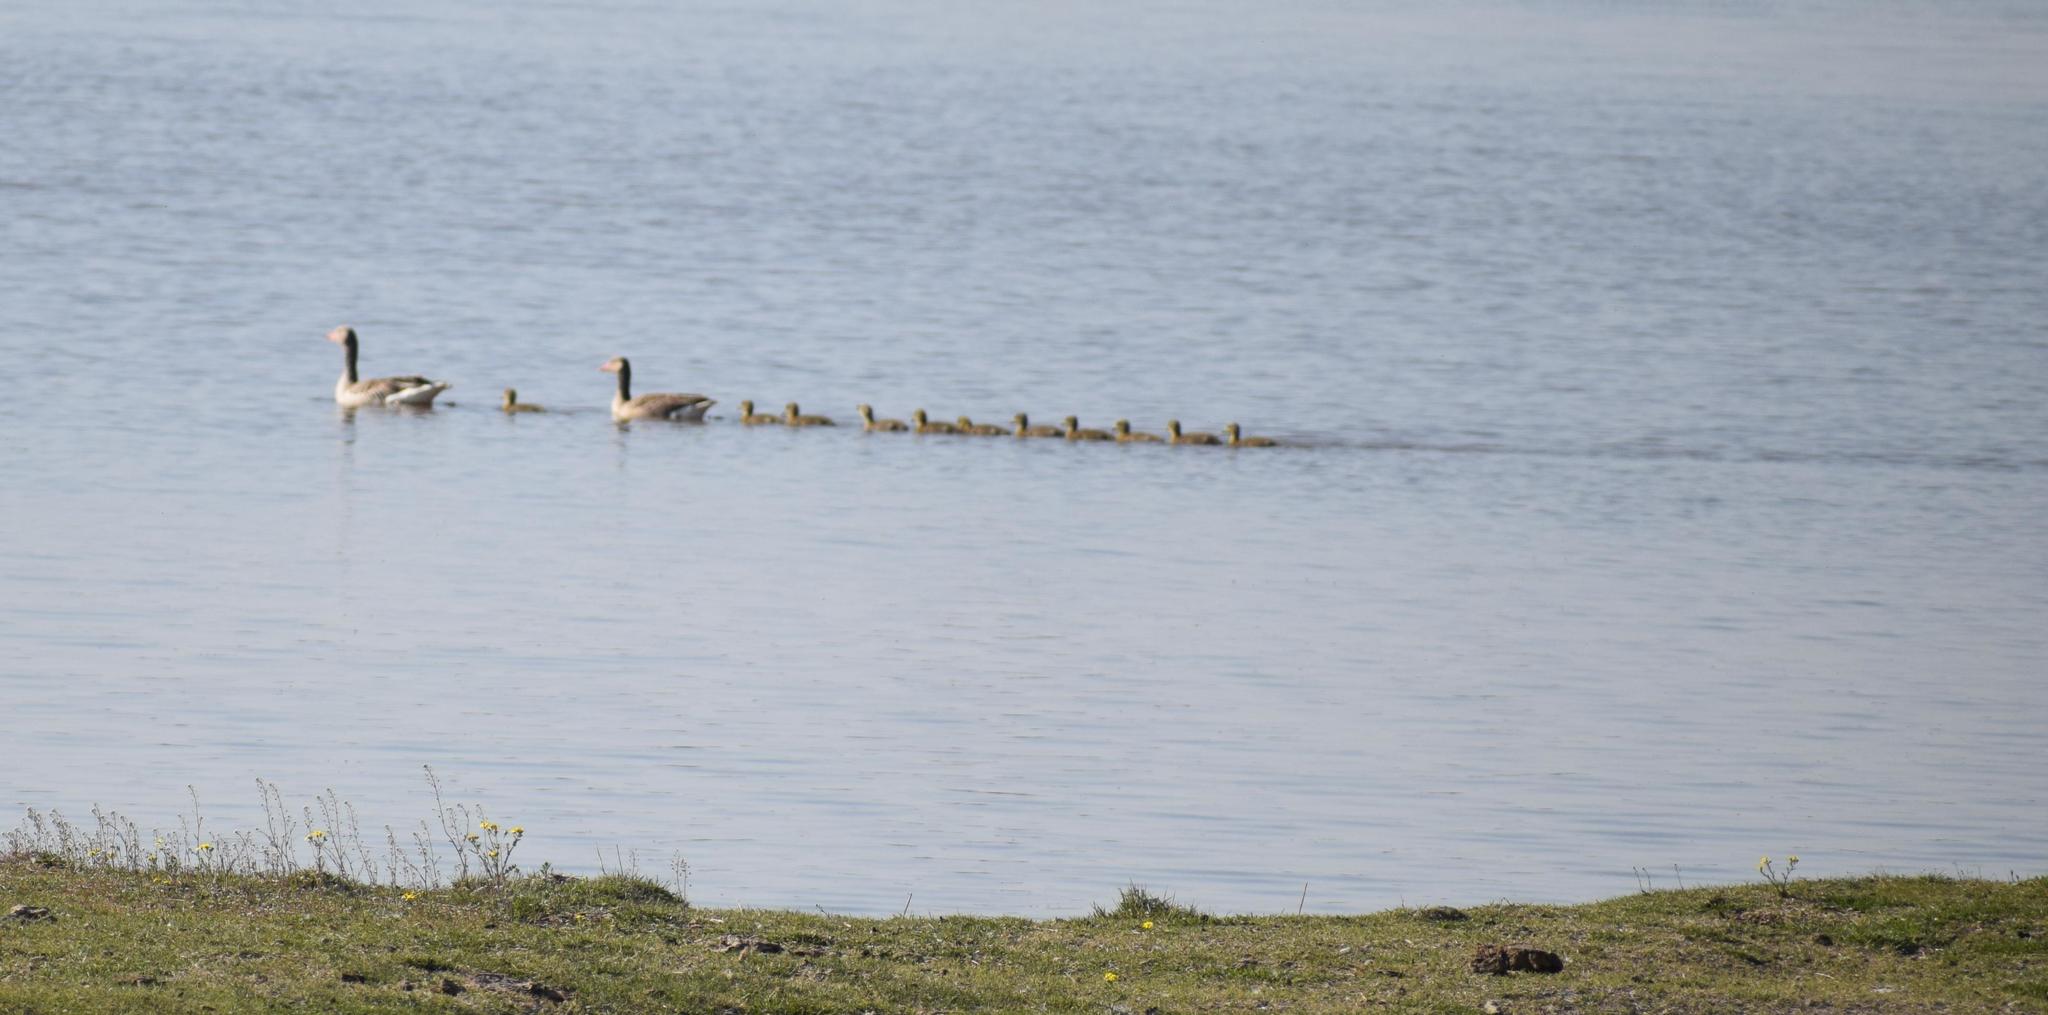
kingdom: Animalia
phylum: Chordata
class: Aves
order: Anseriformes
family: Anatidae
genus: Anser
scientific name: Anser anser
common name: Greylag goose
